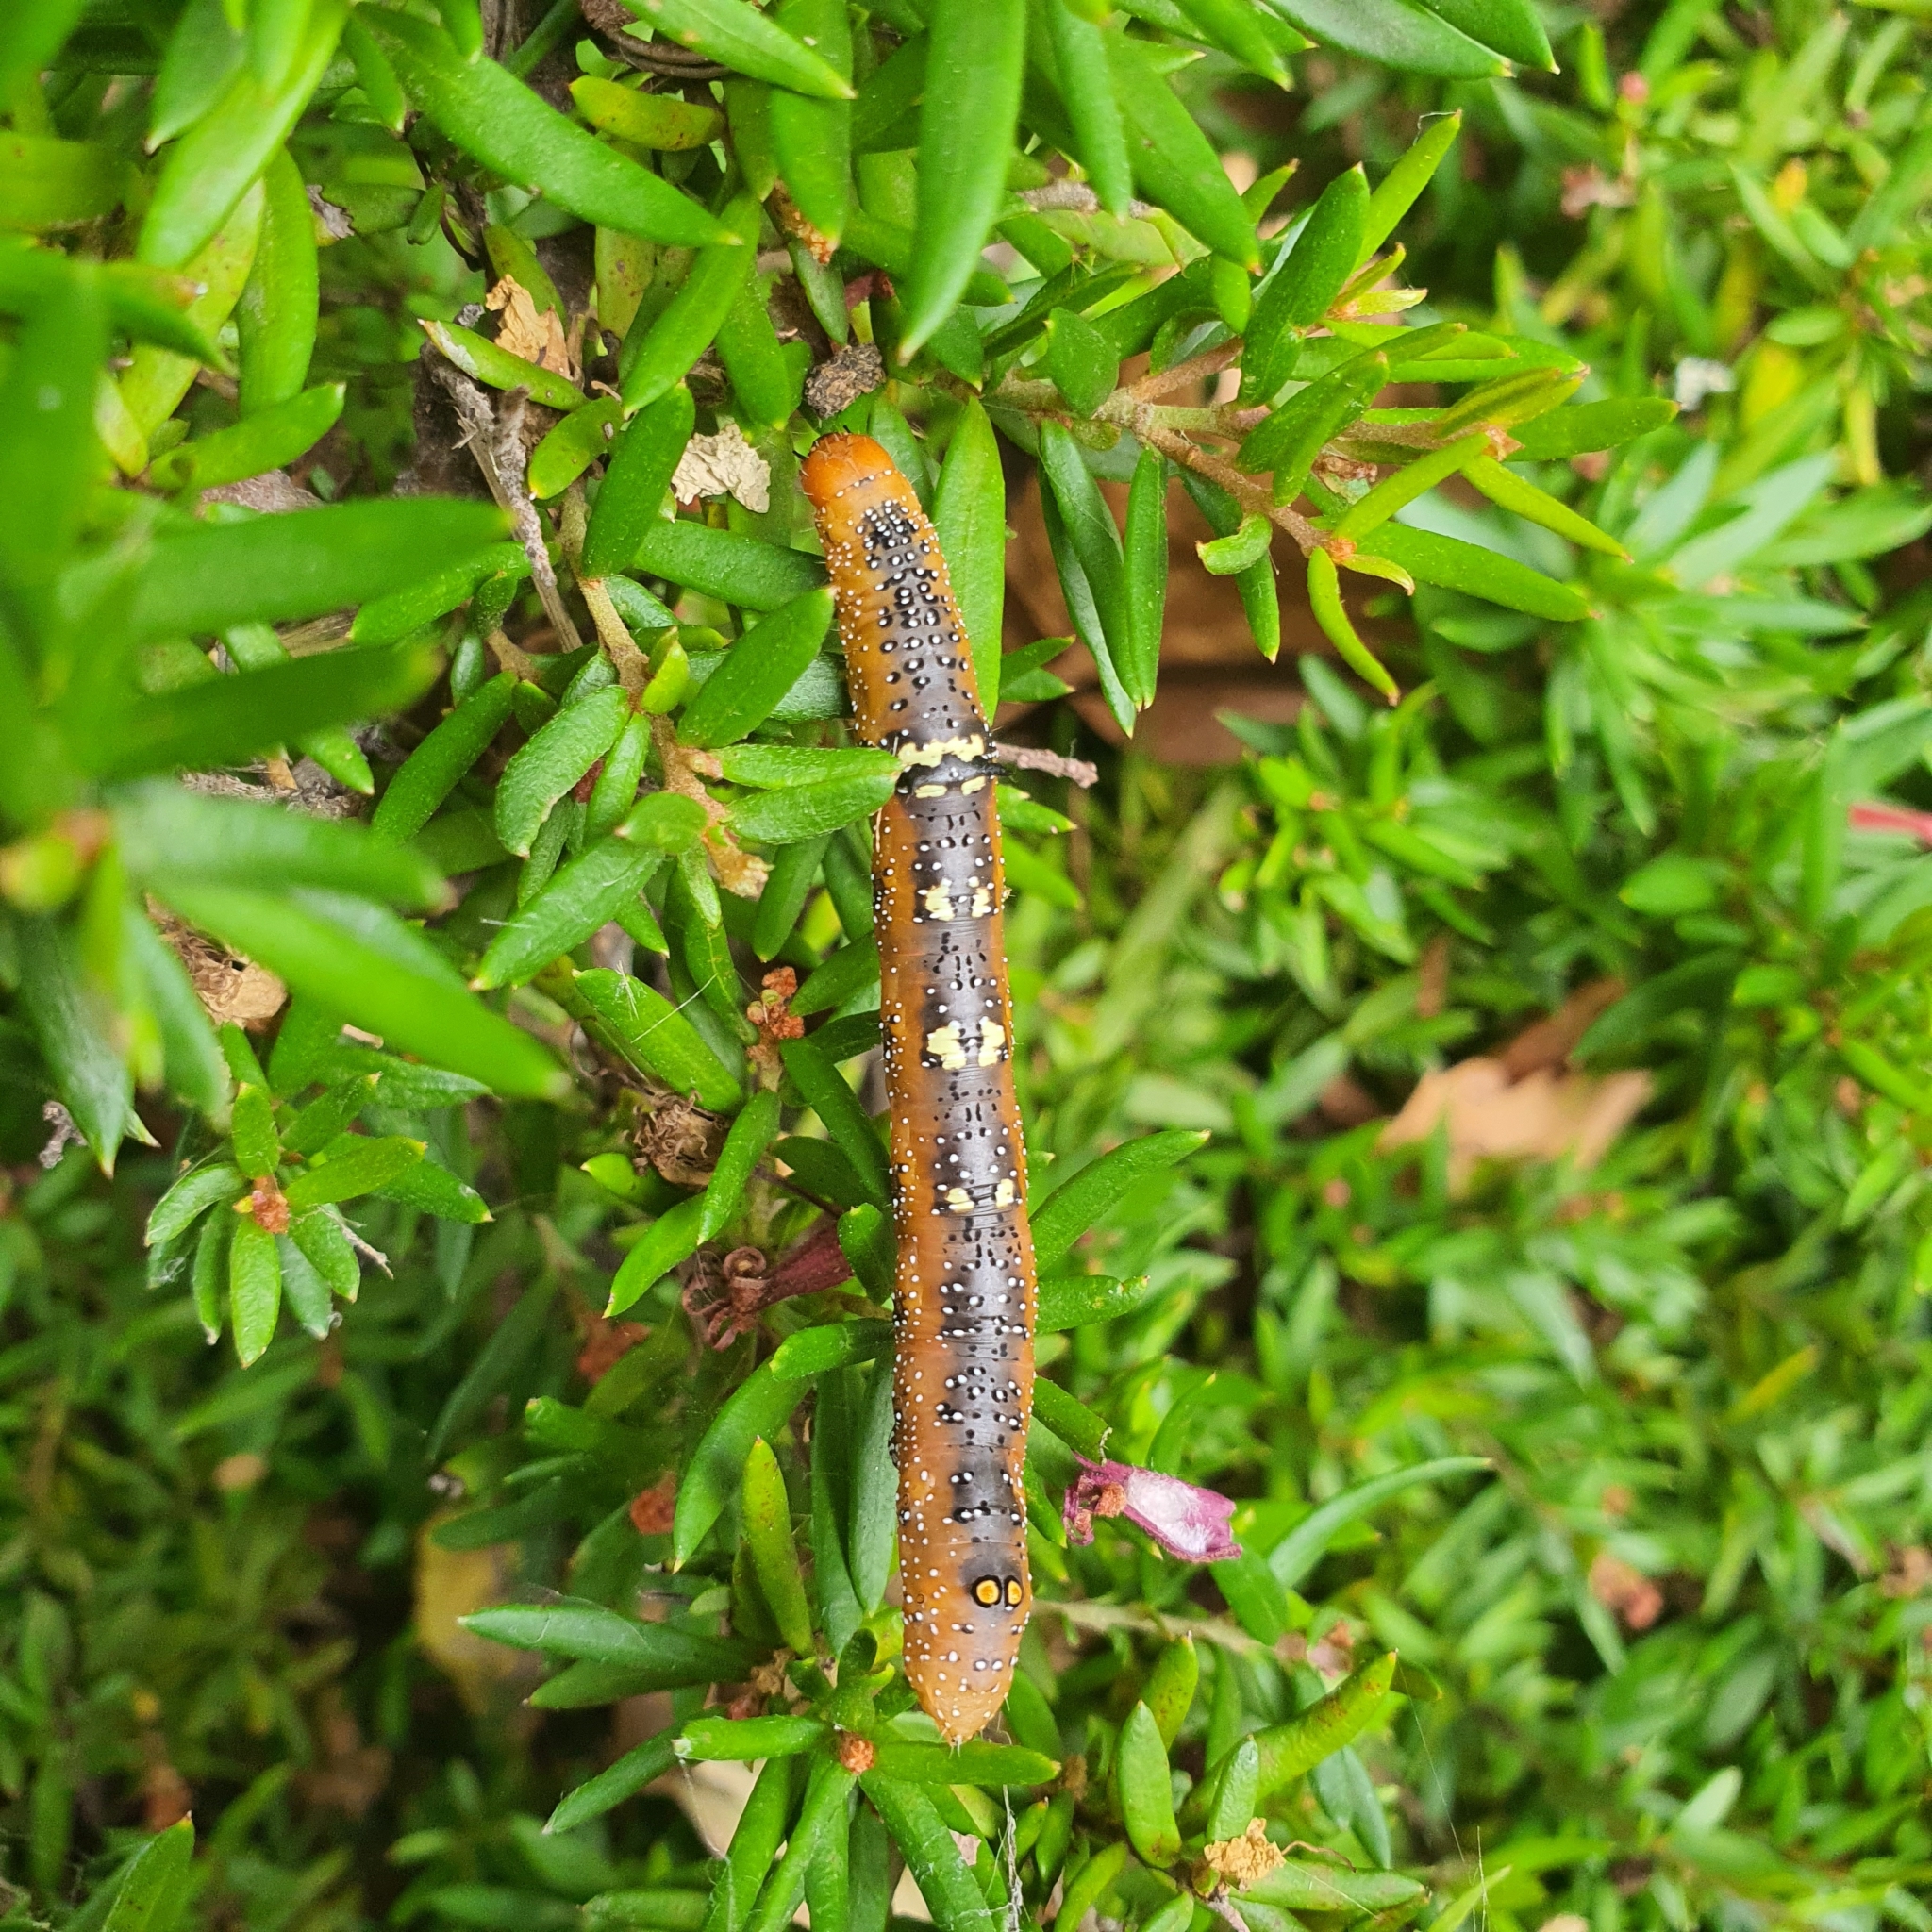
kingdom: Animalia
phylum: Arthropoda
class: Insecta
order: Lepidoptera
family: Geometridae
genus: Oenochroma
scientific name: Oenochroma vinaria
